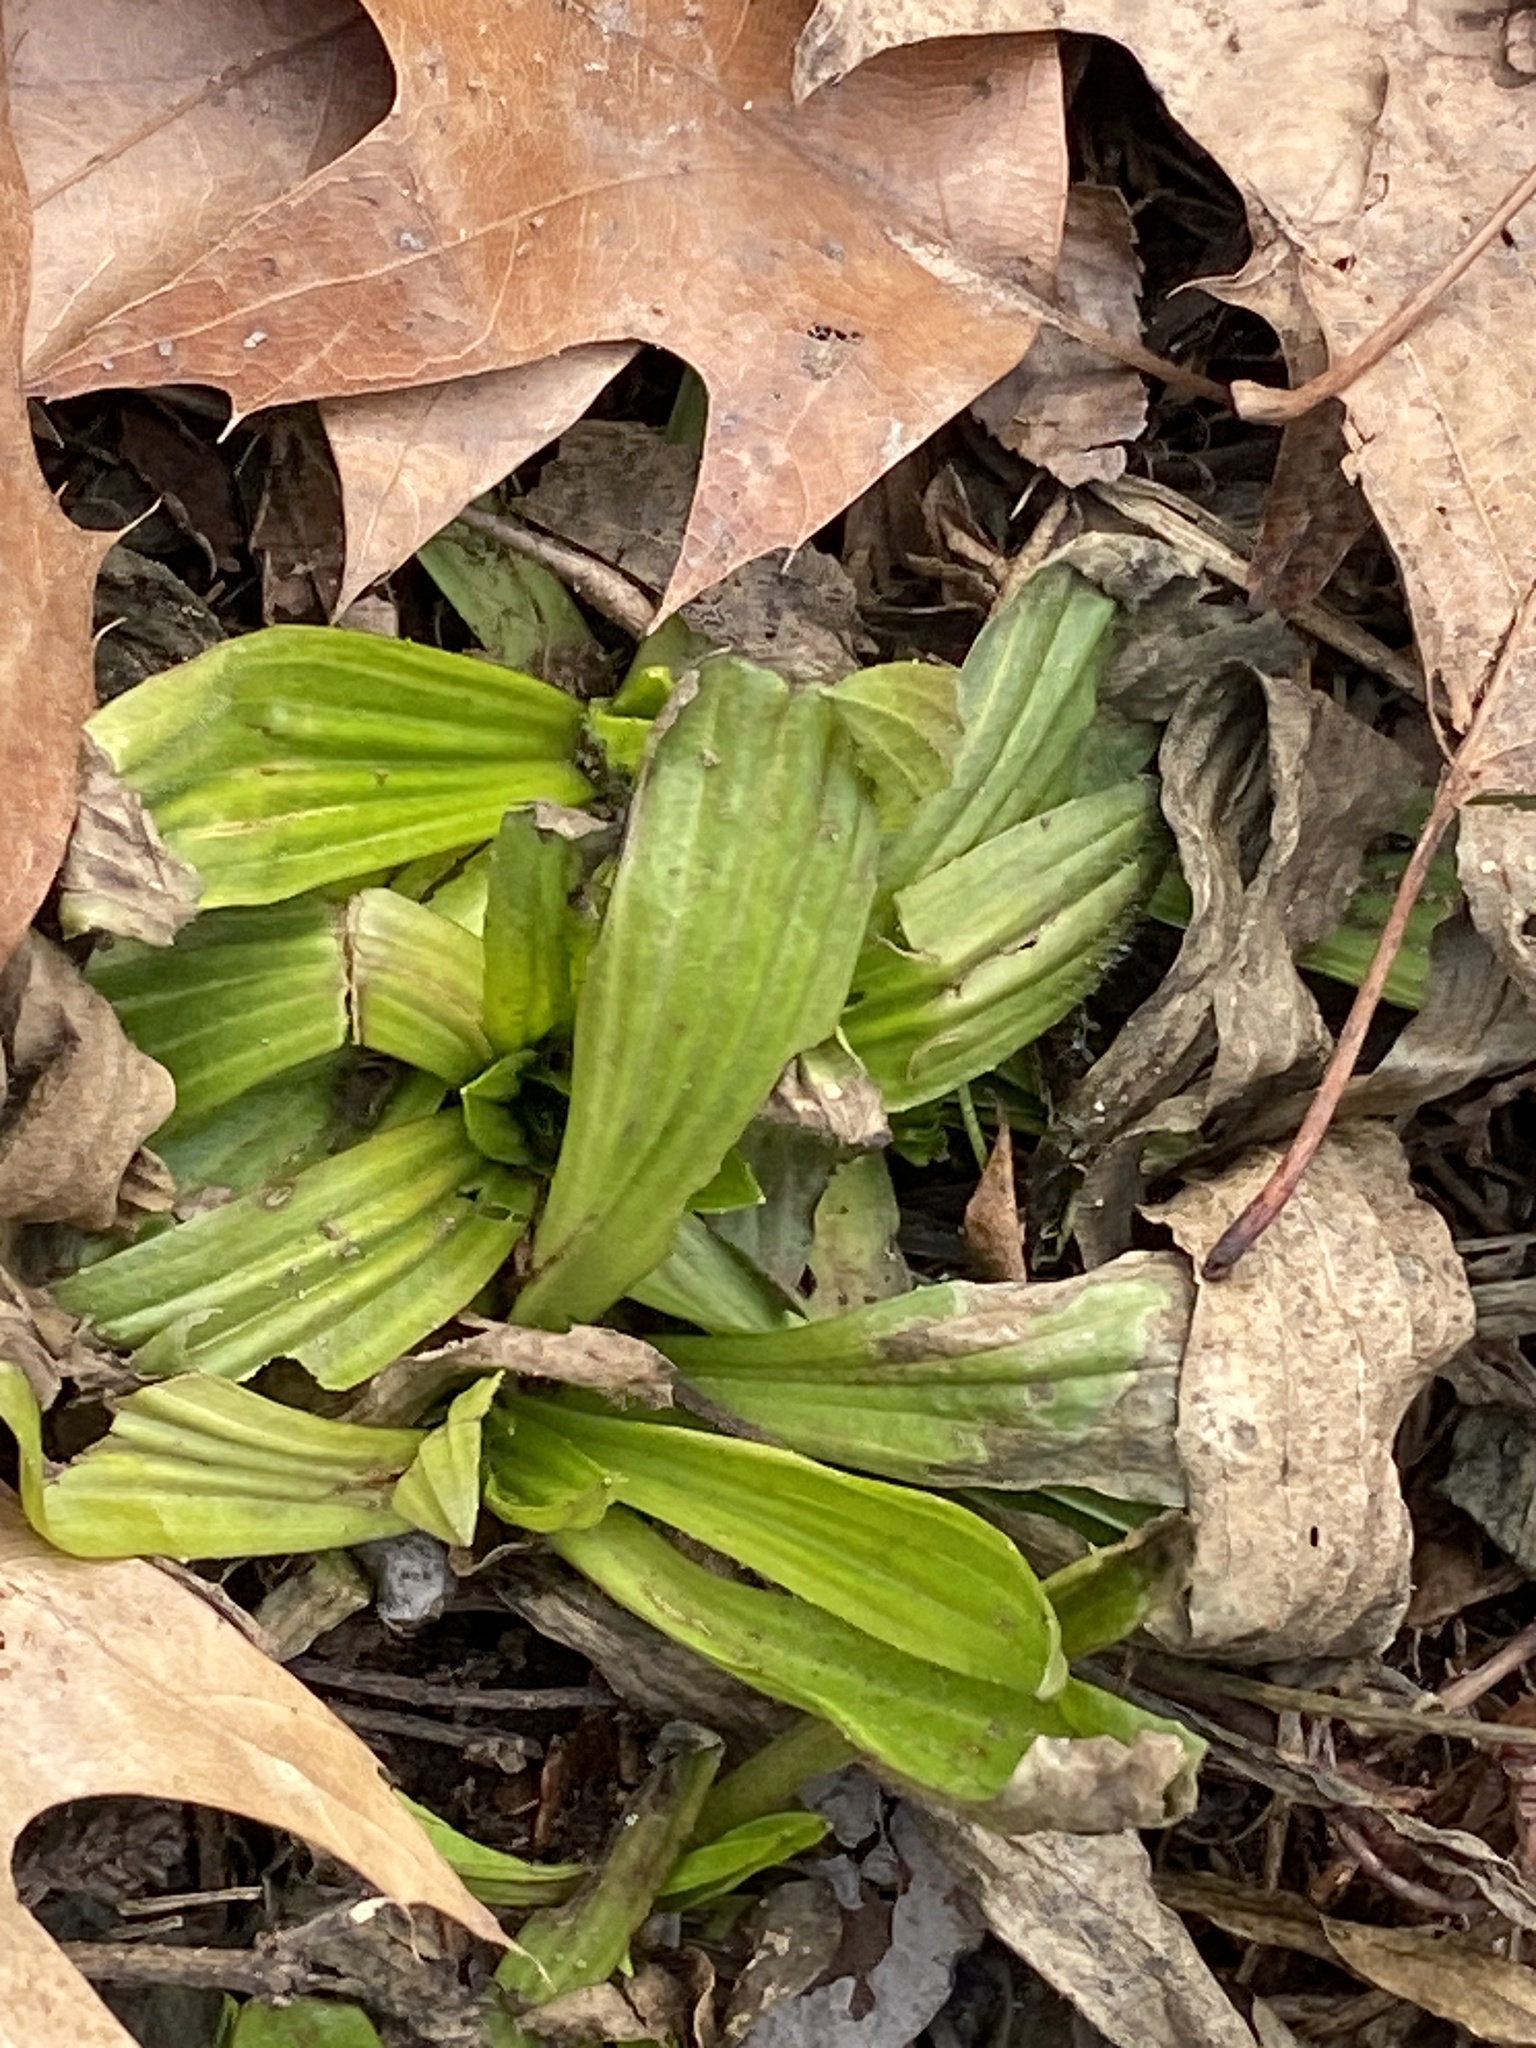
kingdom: Plantae
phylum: Tracheophyta
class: Magnoliopsida
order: Lamiales
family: Plantaginaceae
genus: Plantago
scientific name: Plantago lanceolata
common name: Ribwort plantain
